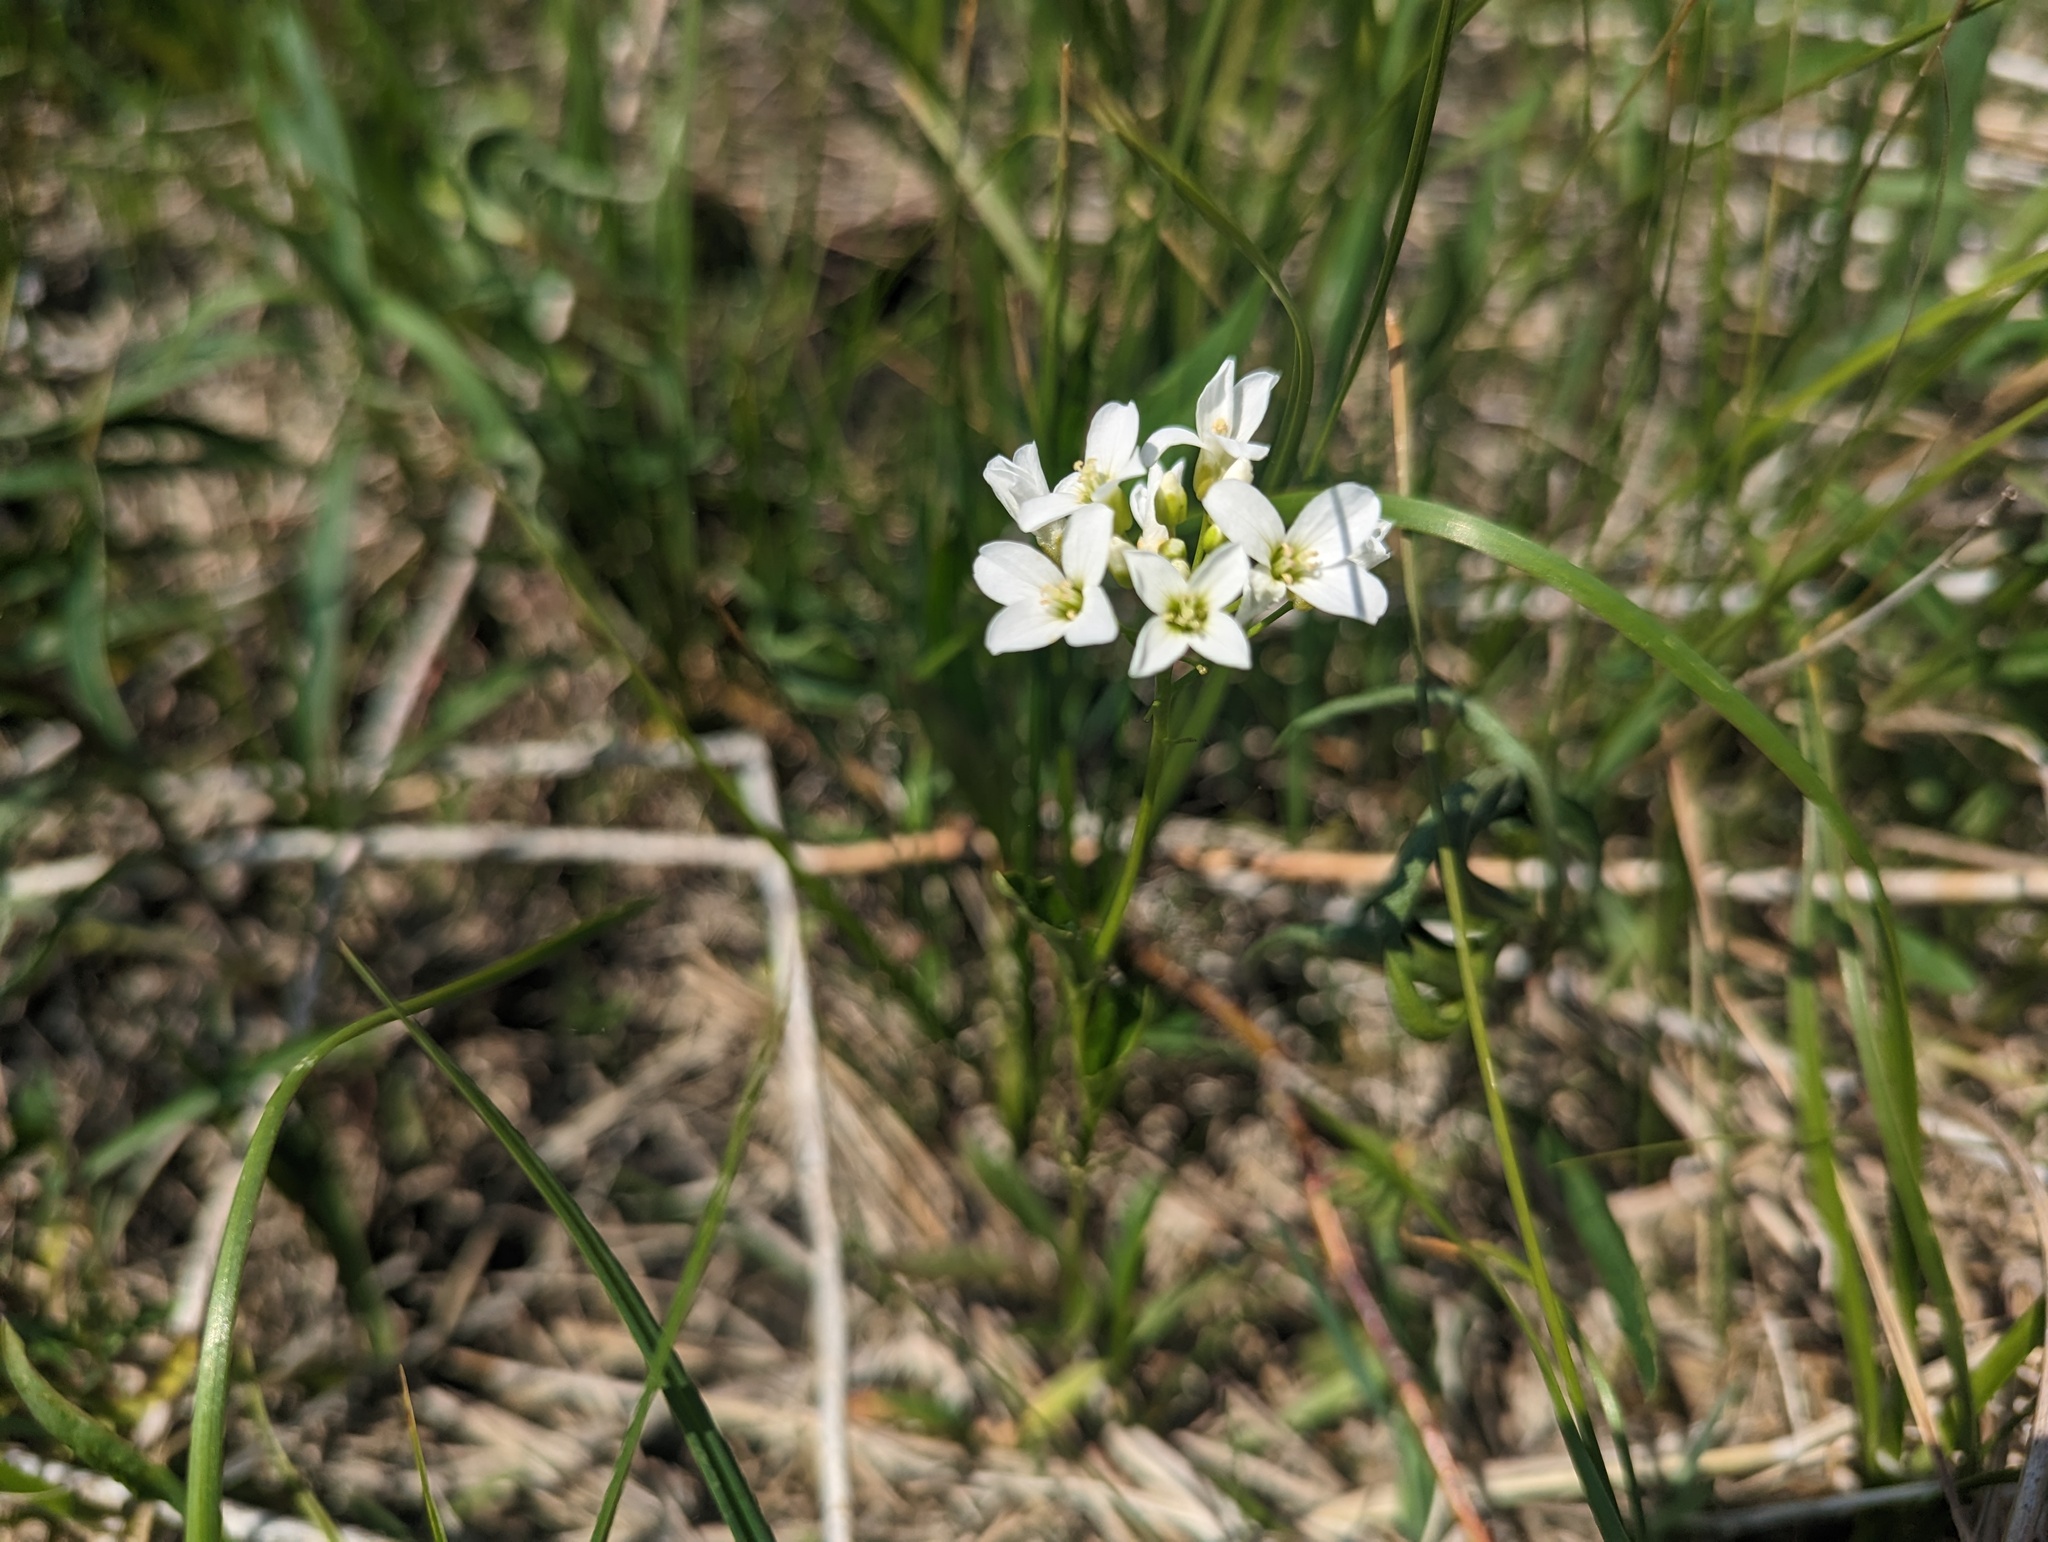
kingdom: Plantae
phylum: Tracheophyta
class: Magnoliopsida
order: Brassicales
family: Brassicaceae
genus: Cardamine
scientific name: Cardamine bulbosa
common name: Spring cress
